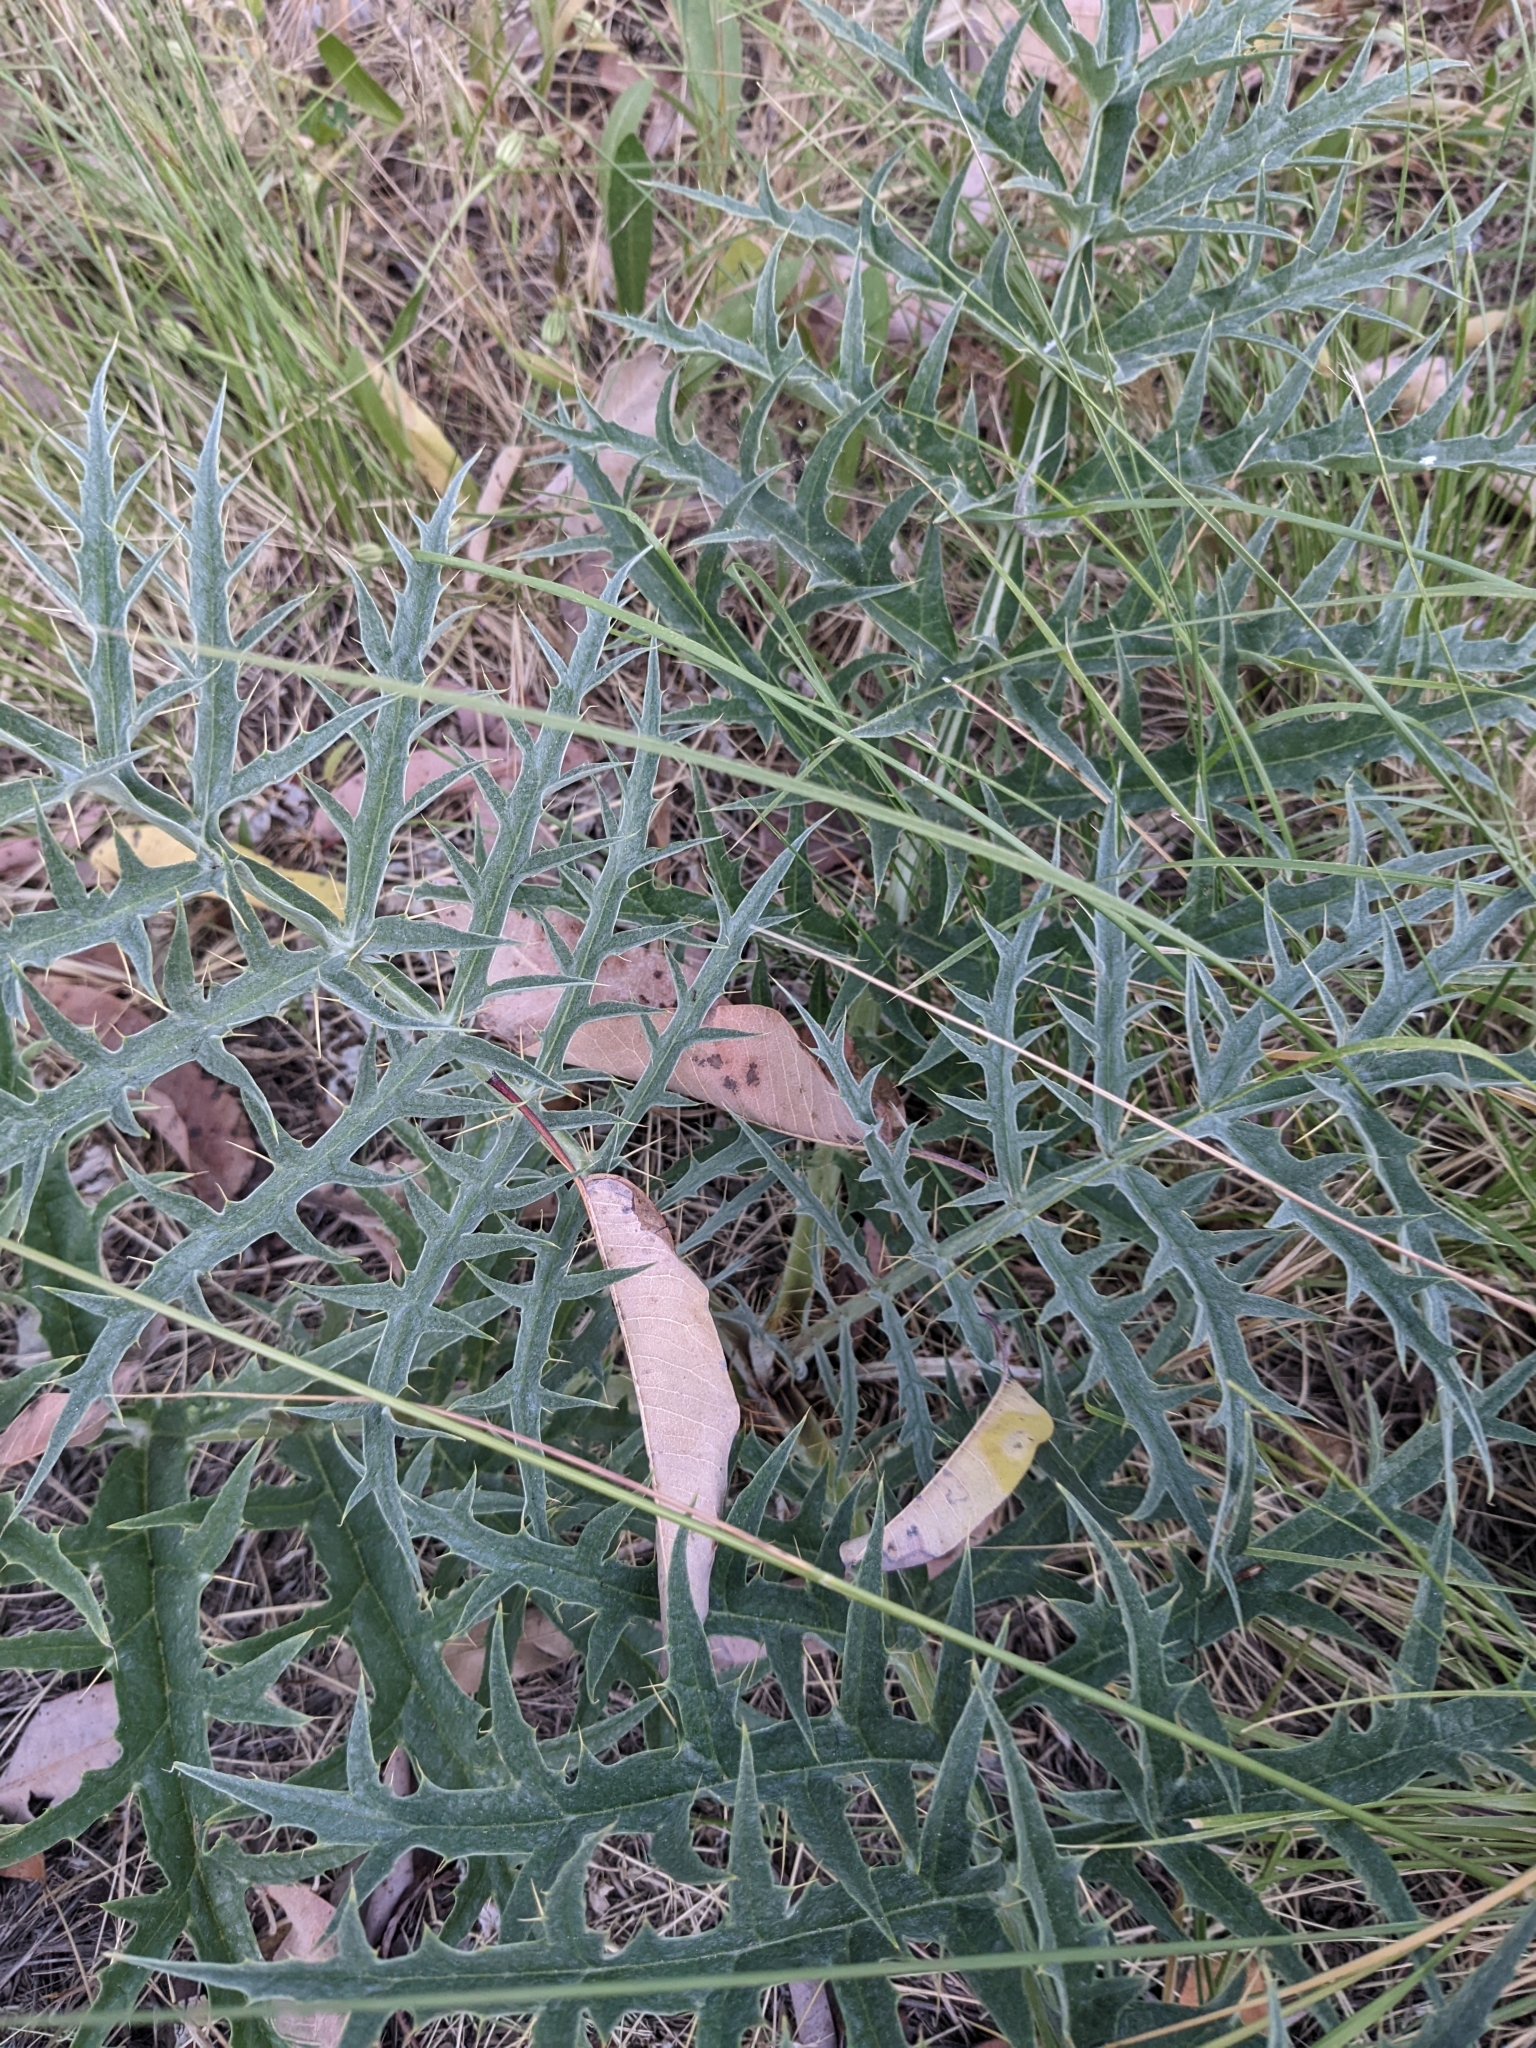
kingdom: Plantae
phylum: Tracheophyta
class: Magnoliopsida
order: Asterales
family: Asteraceae
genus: Cynara
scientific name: Cynara cardunculus
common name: Globe artichoke
